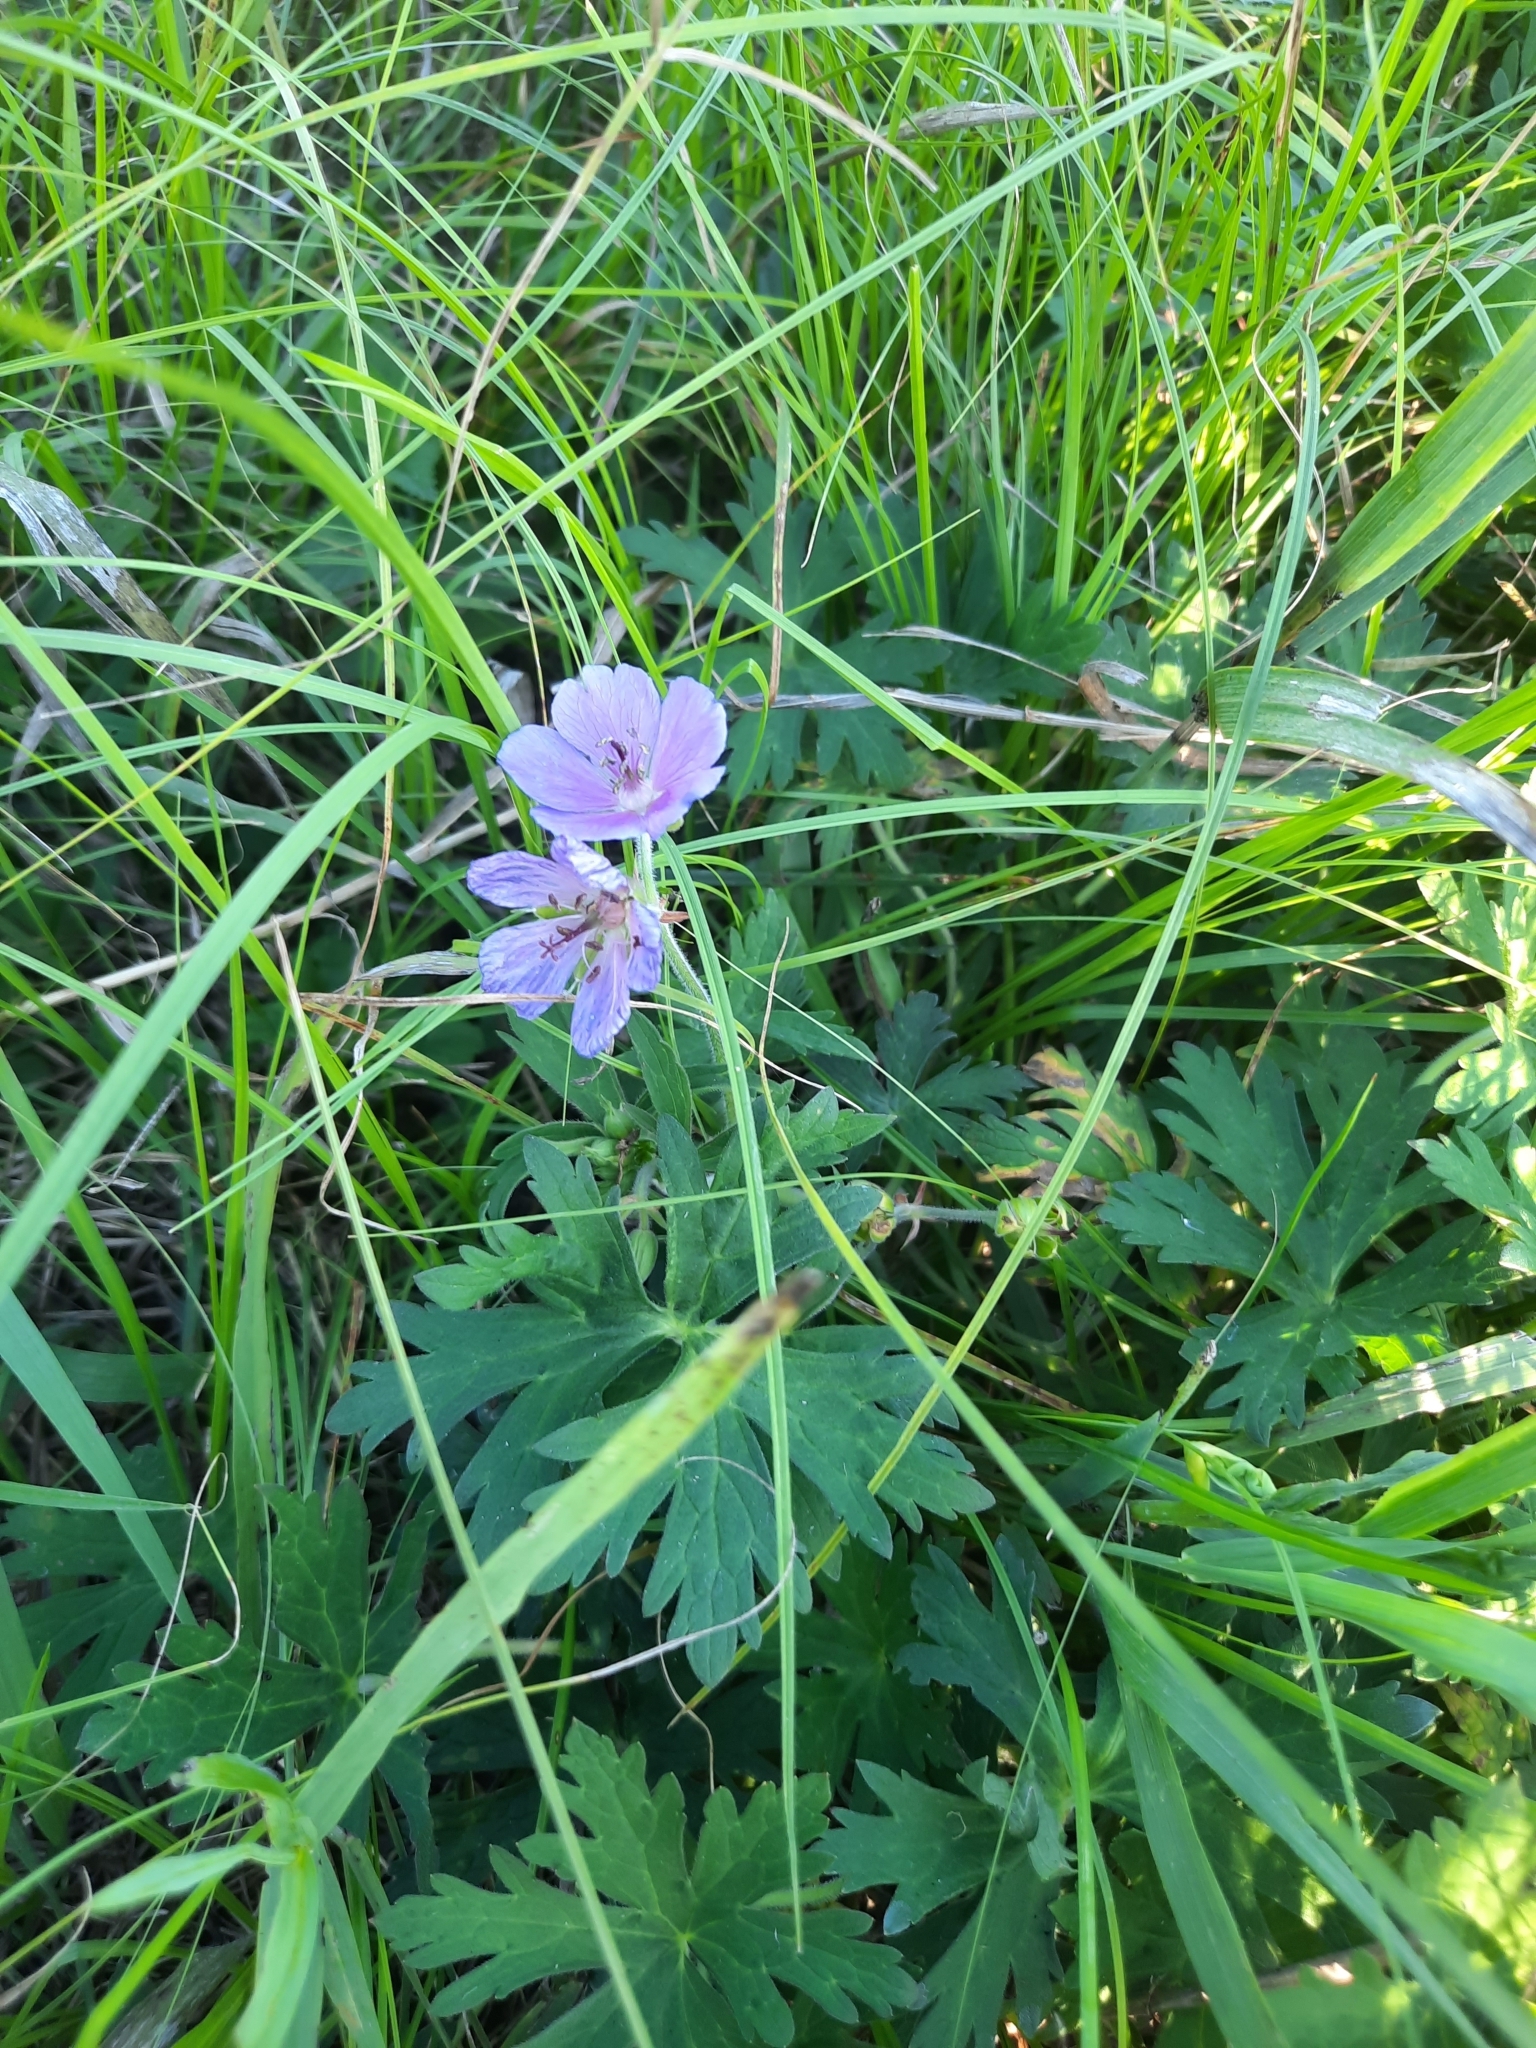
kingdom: Plantae
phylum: Tracheophyta
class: Magnoliopsida
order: Geraniales
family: Geraniaceae
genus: Geranium
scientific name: Geranium pratense
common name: Meadow crane's-bill
